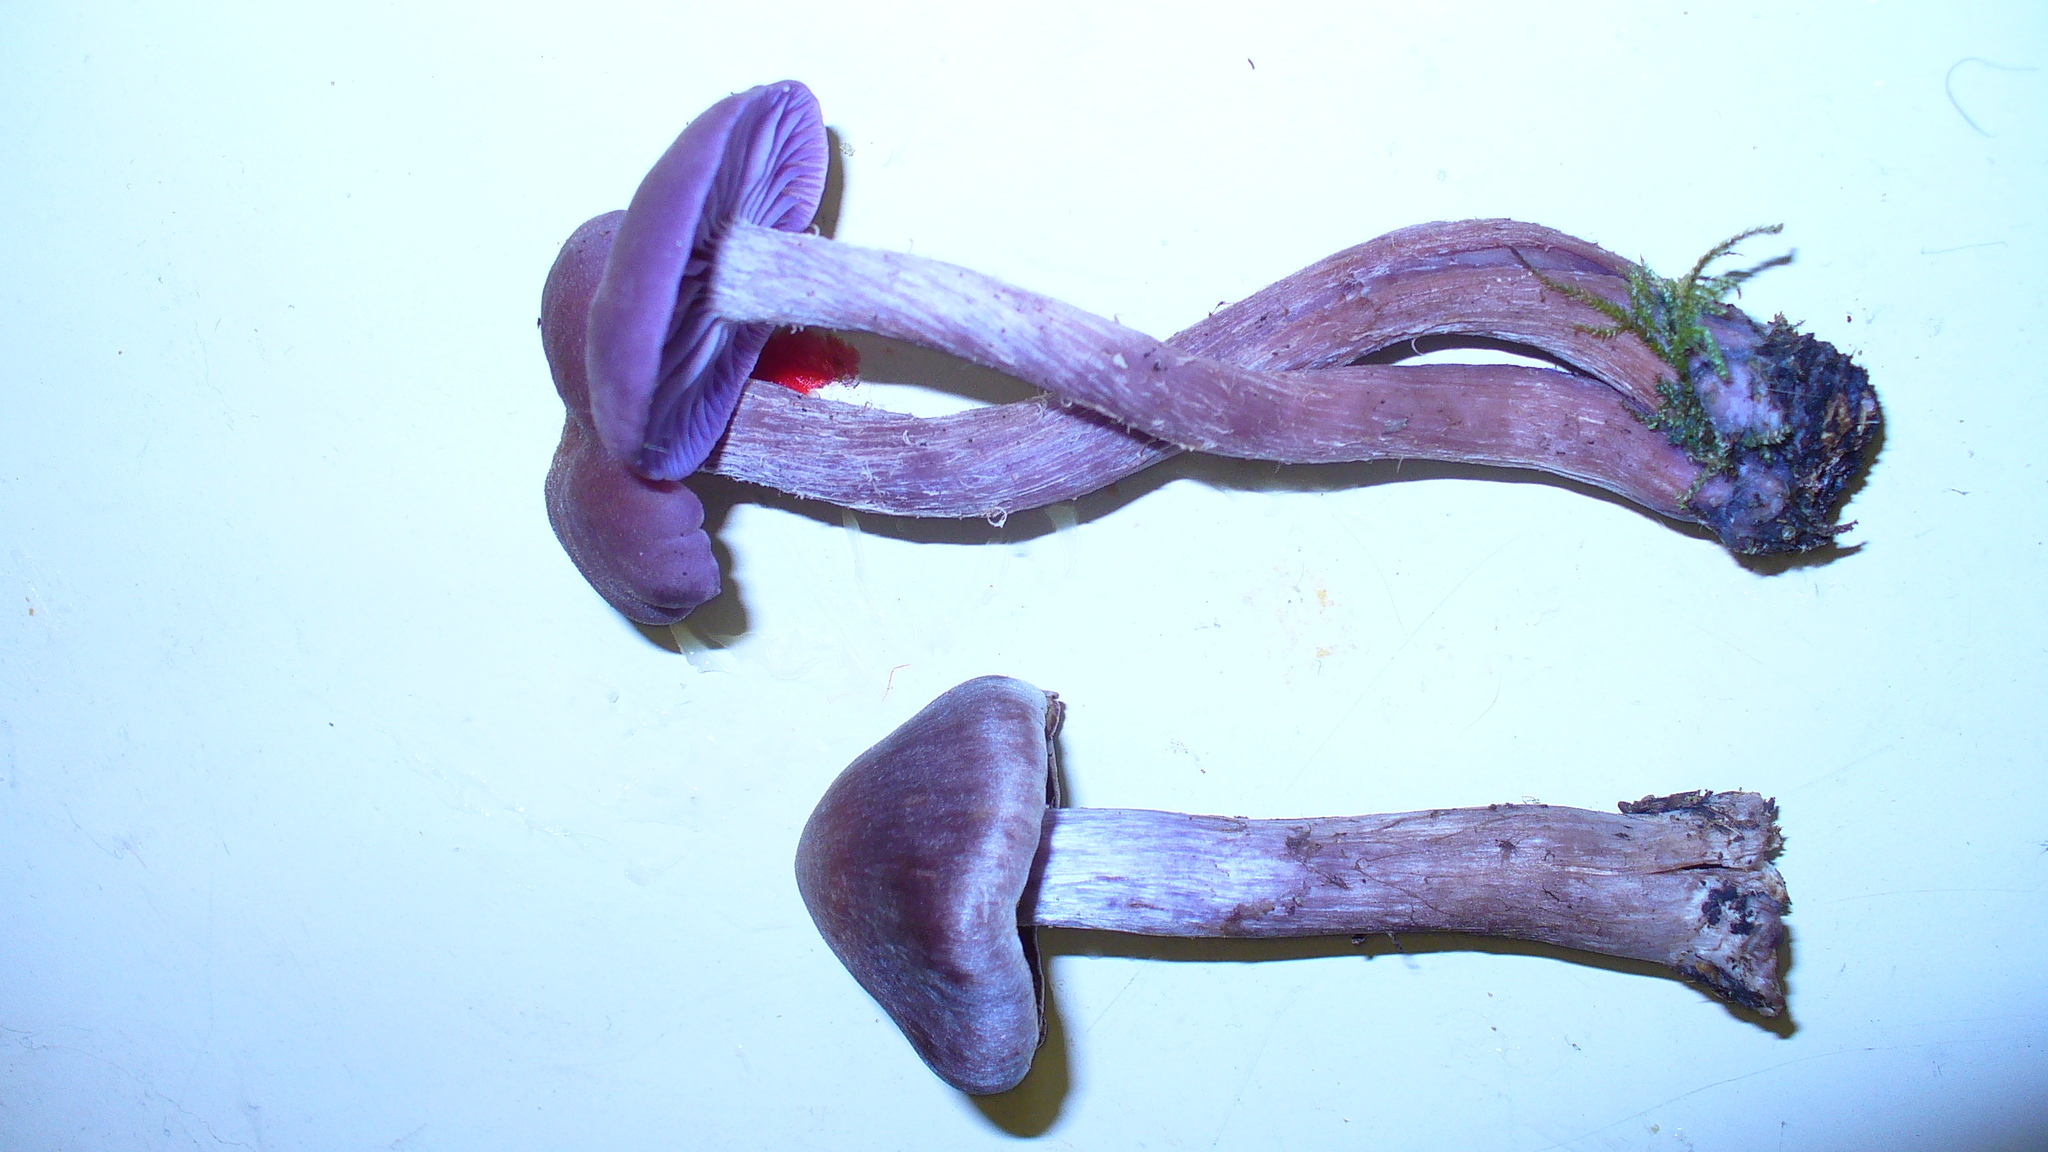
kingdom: Fungi
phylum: Basidiomycota
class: Agaricomycetes
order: Agaricales
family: Hydnangiaceae
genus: Laccaria
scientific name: Laccaria amethysteo-occidentalis
